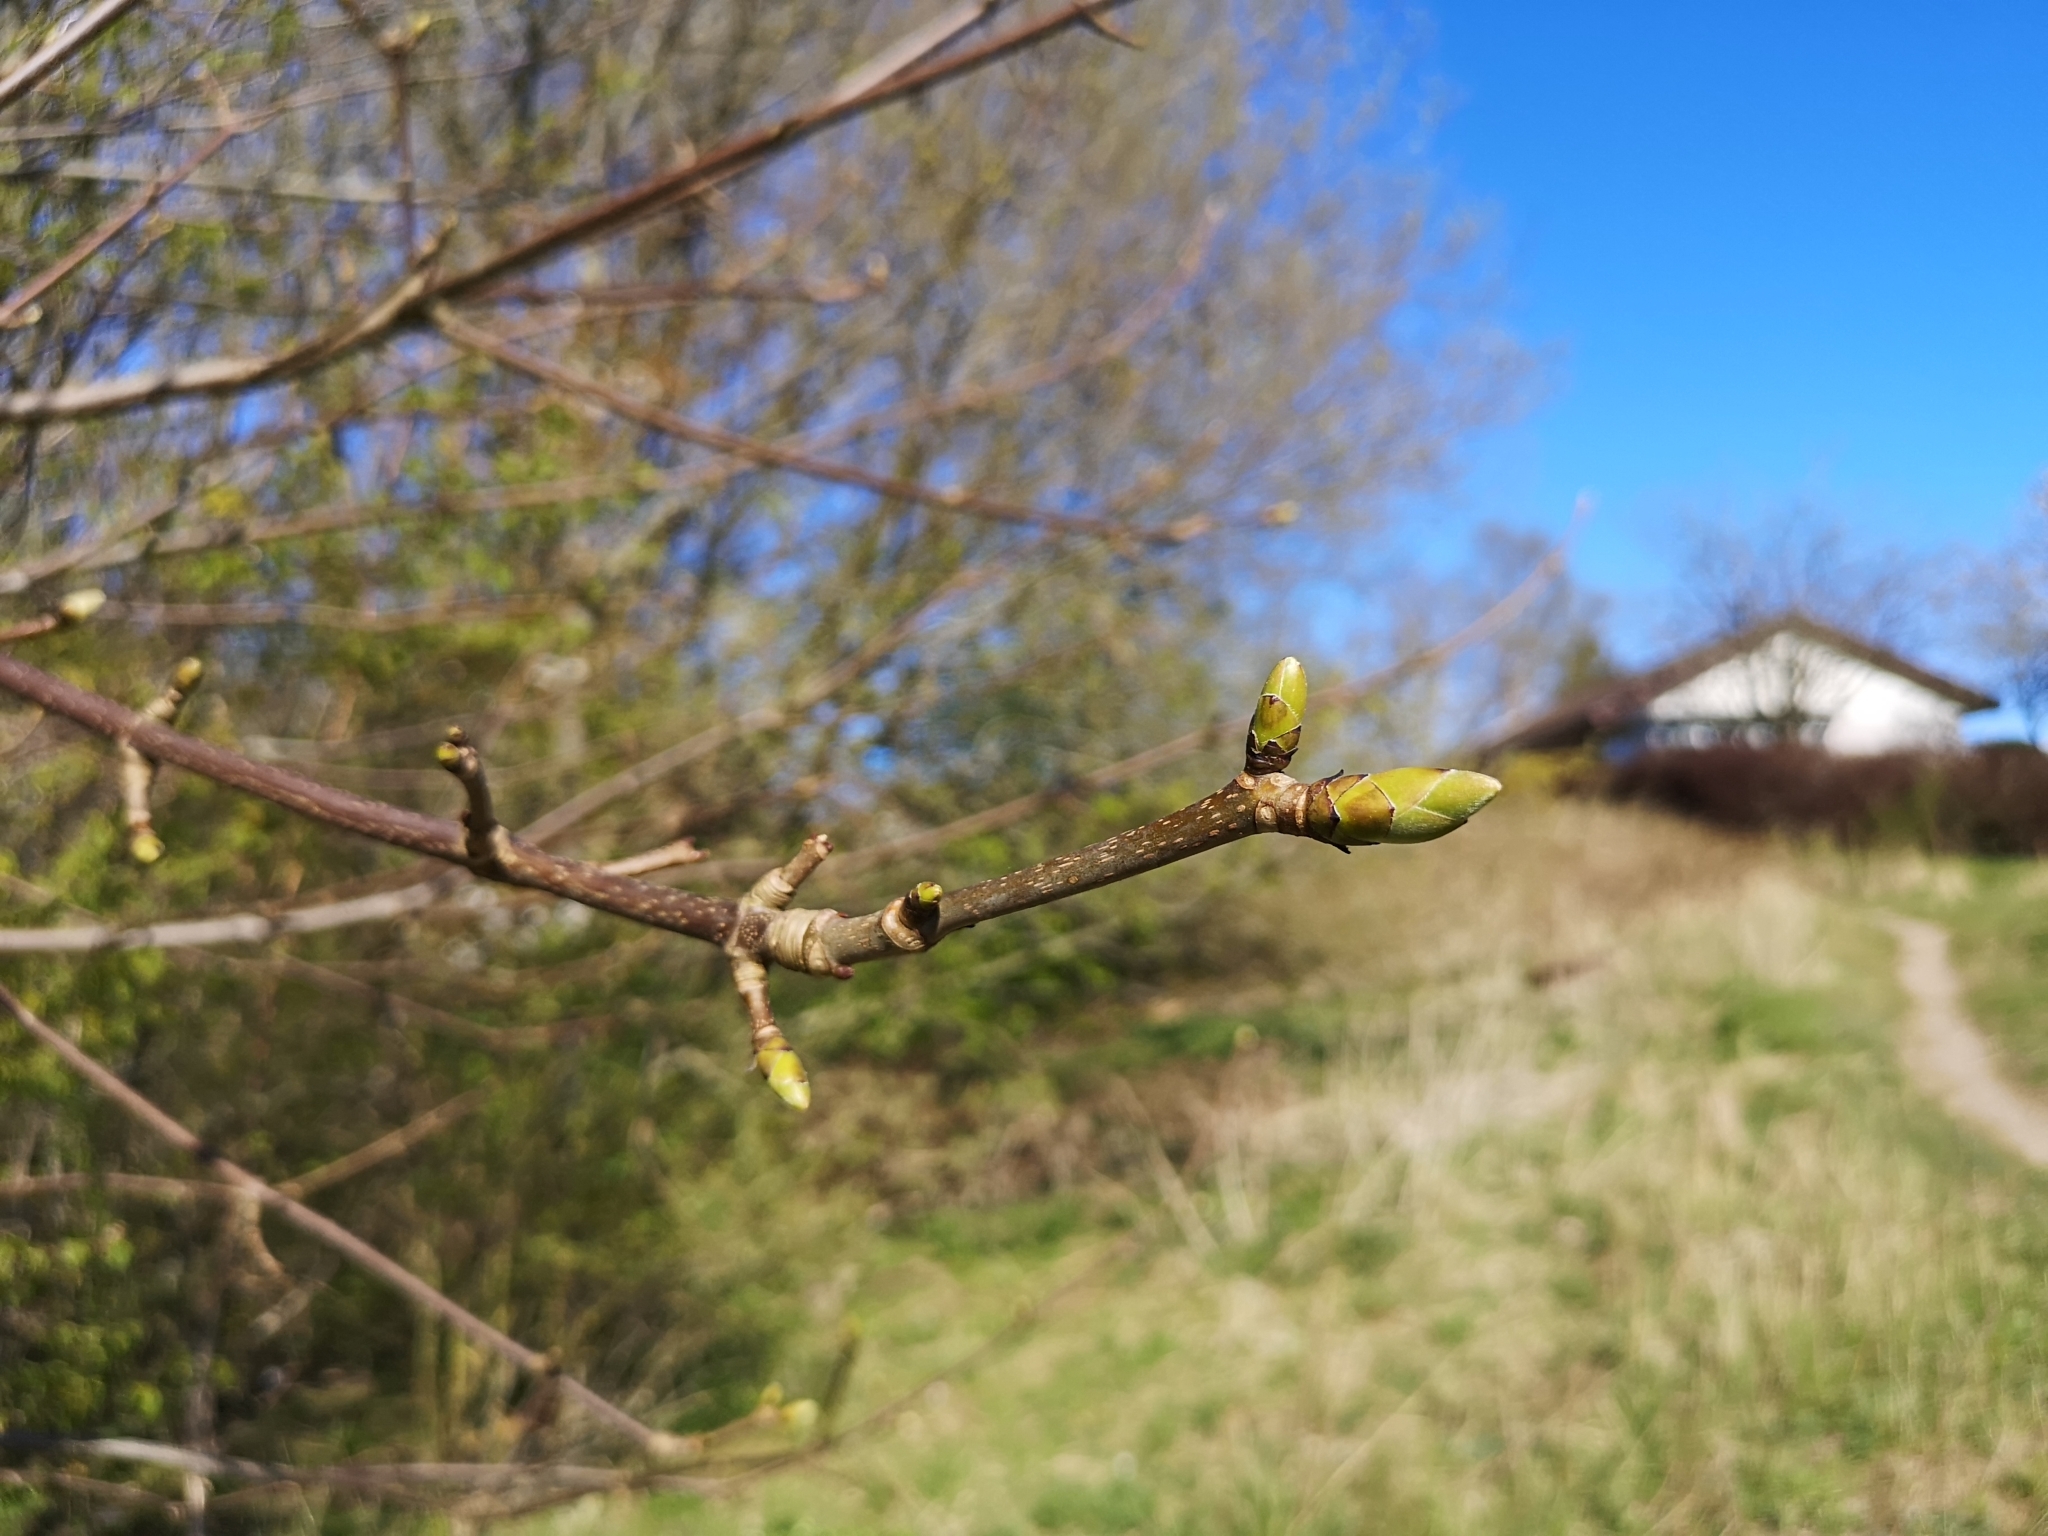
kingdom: Plantae
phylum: Tracheophyta
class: Magnoliopsida
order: Sapindales
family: Sapindaceae
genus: Acer
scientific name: Acer pseudoplatanus
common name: Sycamore
